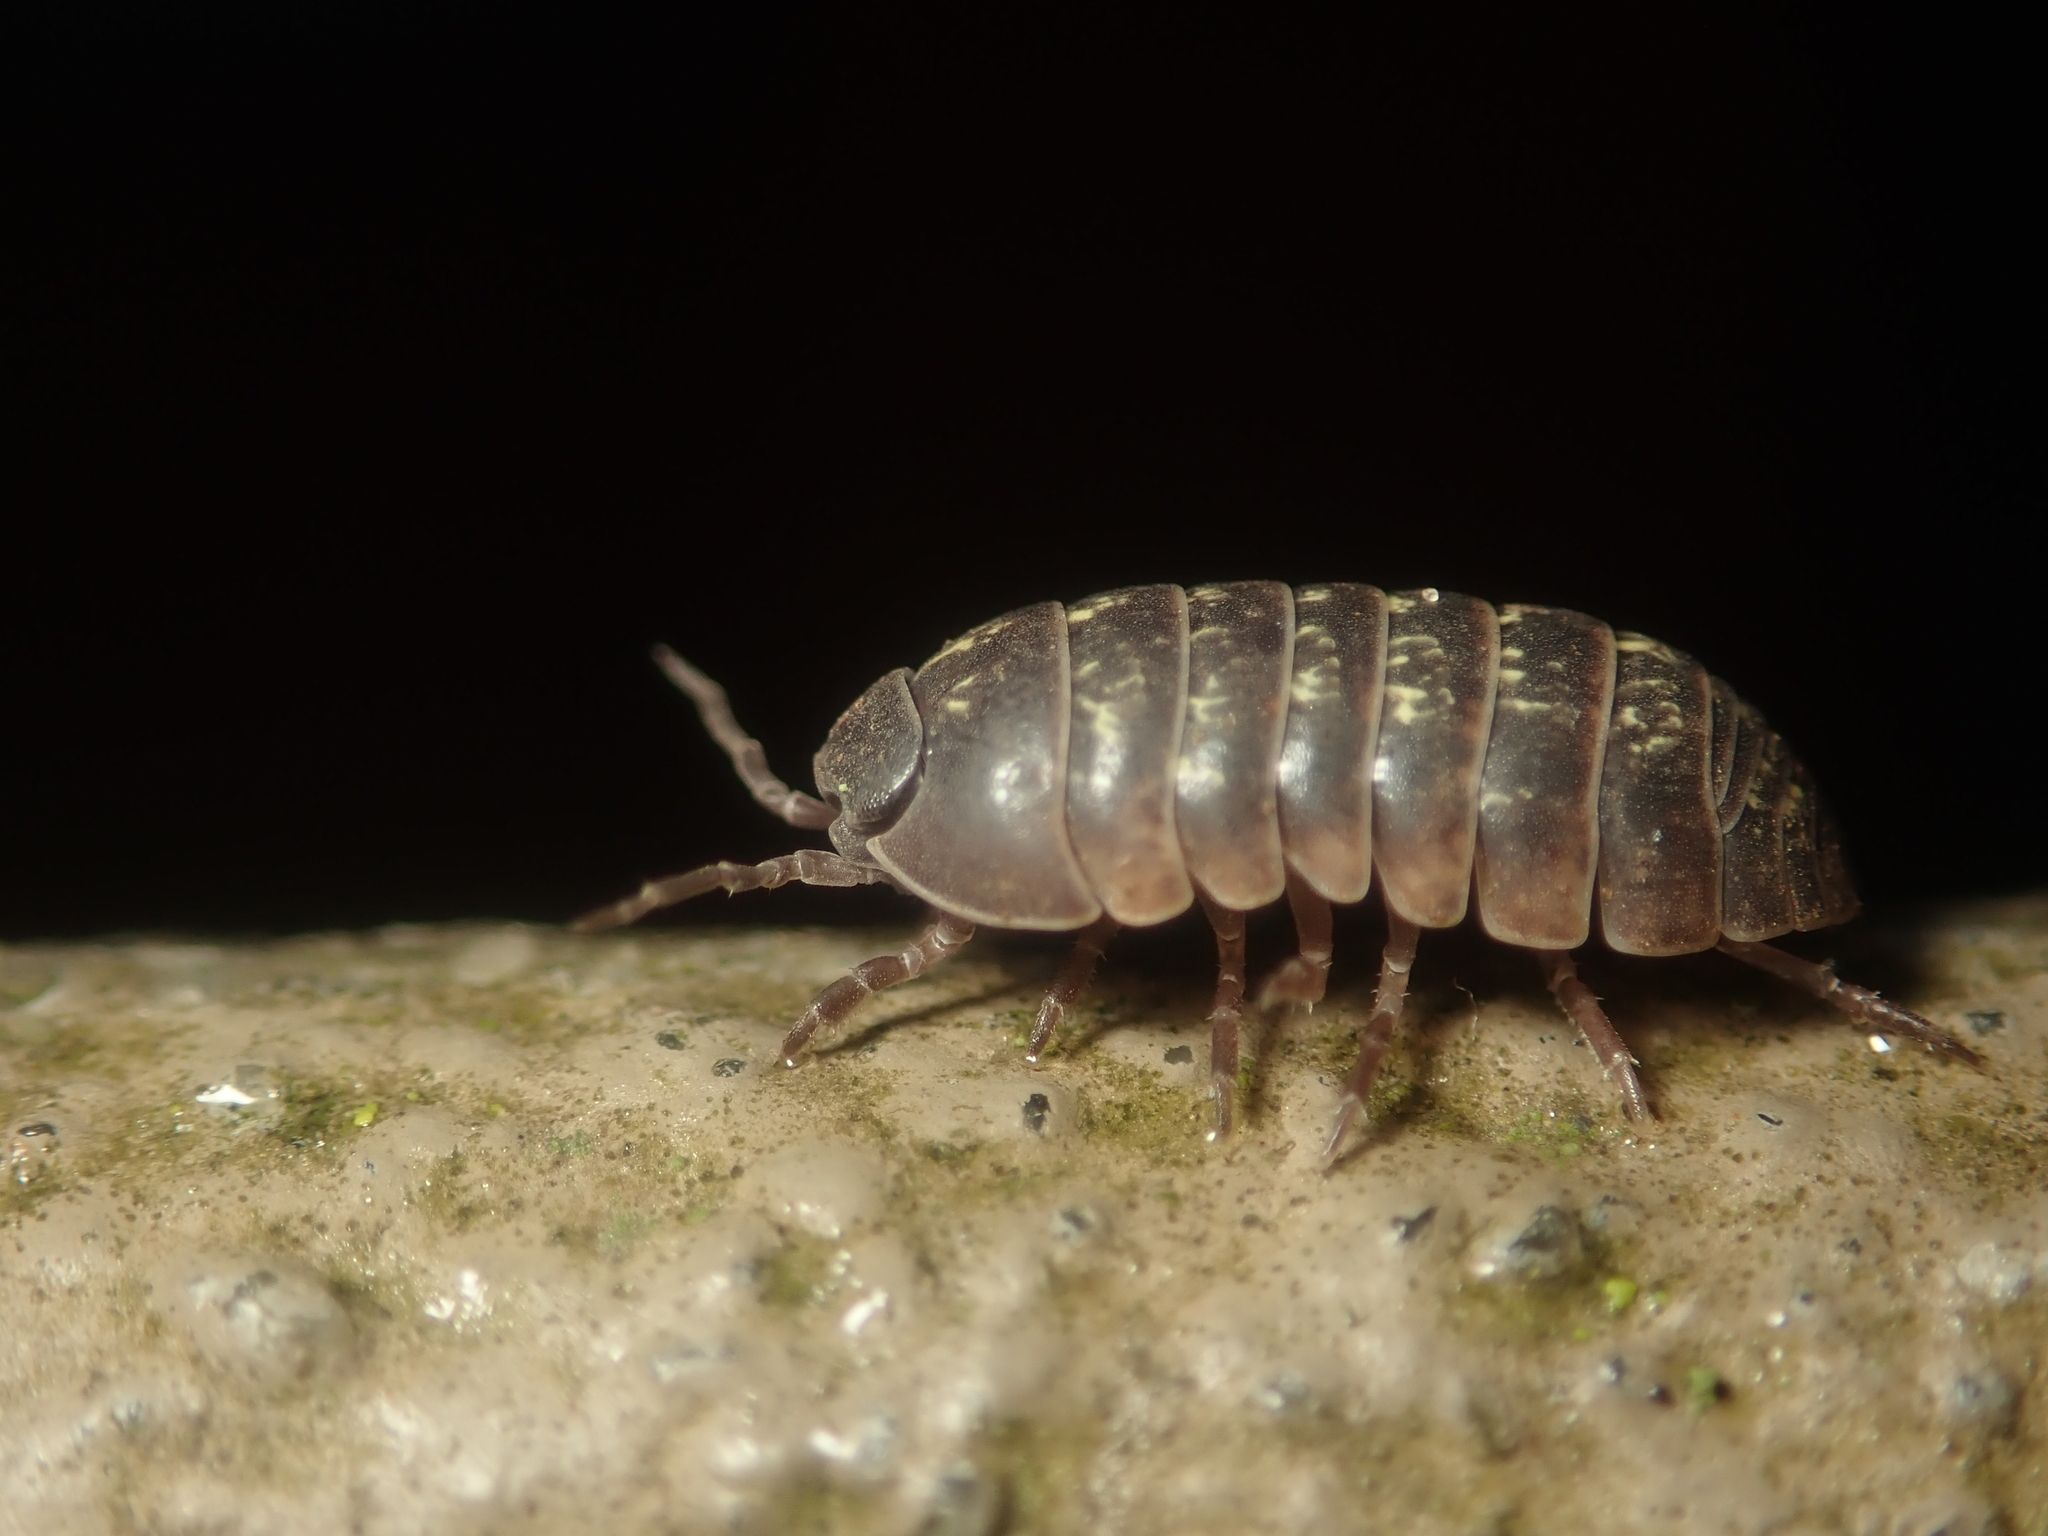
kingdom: Animalia
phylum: Arthropoda
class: Malacostraca
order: Isopoda
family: Armadillidiidae
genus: Armadillidium
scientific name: Armadillidium vulgare
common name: Common pill woodlouse
